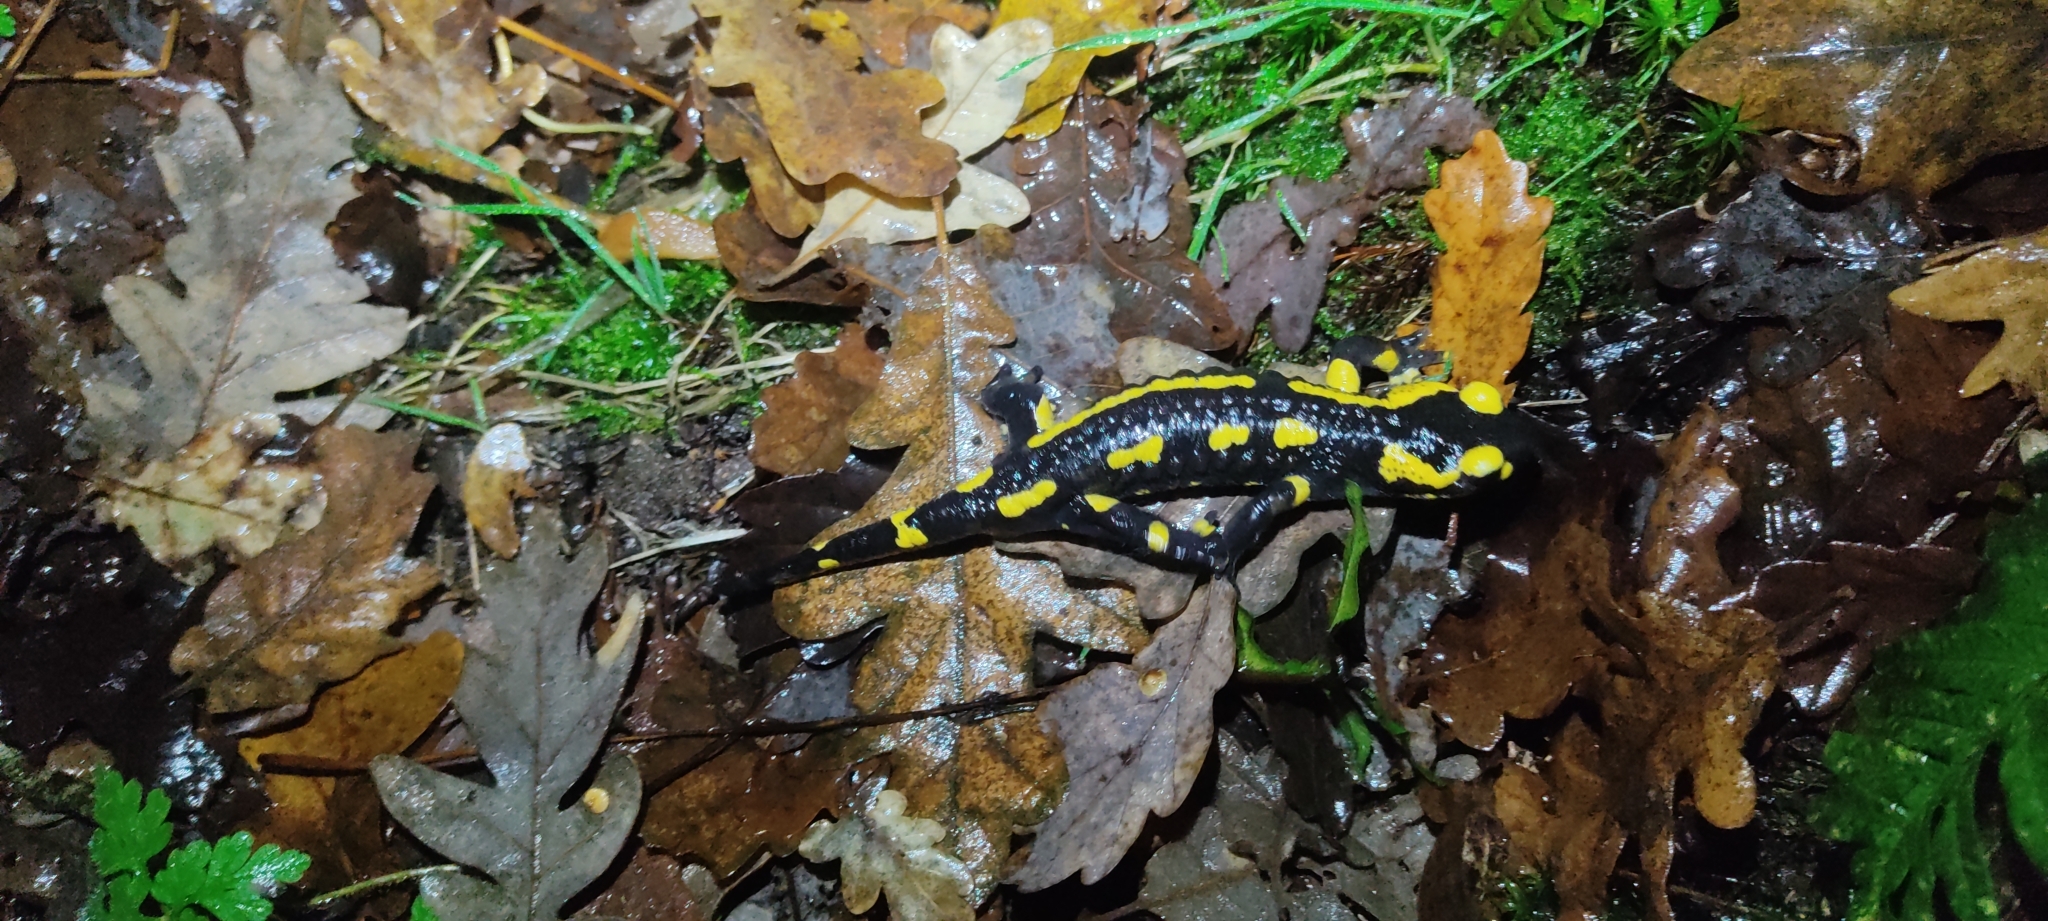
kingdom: Animalia
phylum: Chordata
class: Amphibia
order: Caudata
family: Salamandridae
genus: Salamandra
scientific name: Salamandra salamandra
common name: Fire salamander
